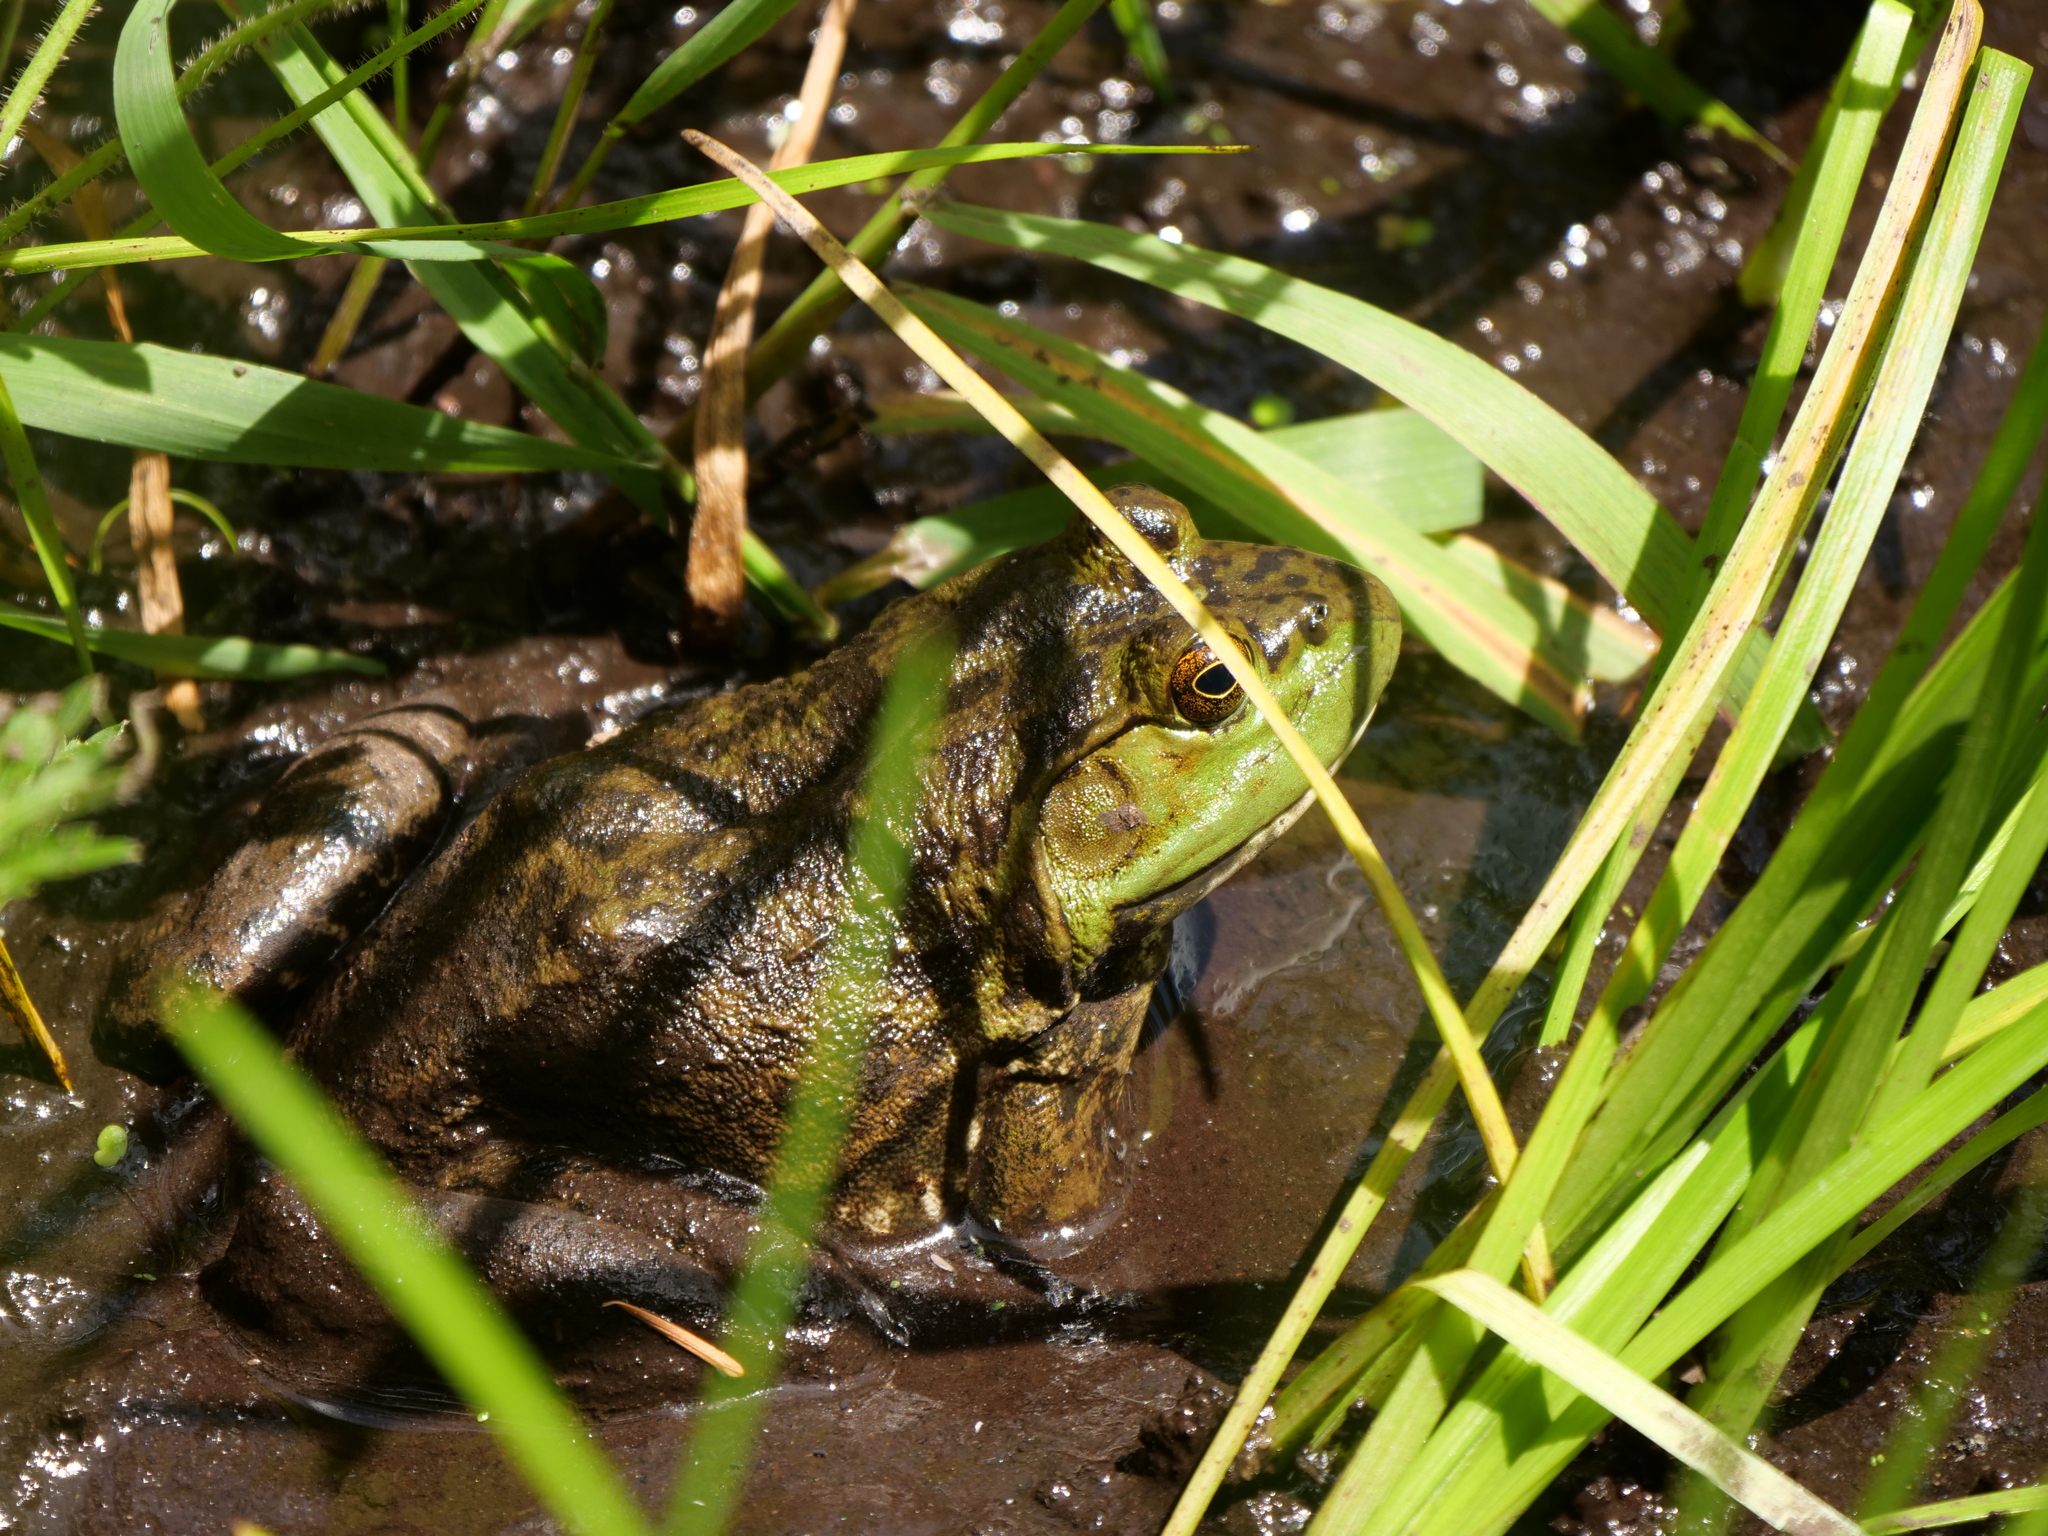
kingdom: Animalia
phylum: Chordata
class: Amphibia
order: Anura
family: Ranidae
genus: Lithobates
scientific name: Lithobates catesbeianus
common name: American bullfrog
